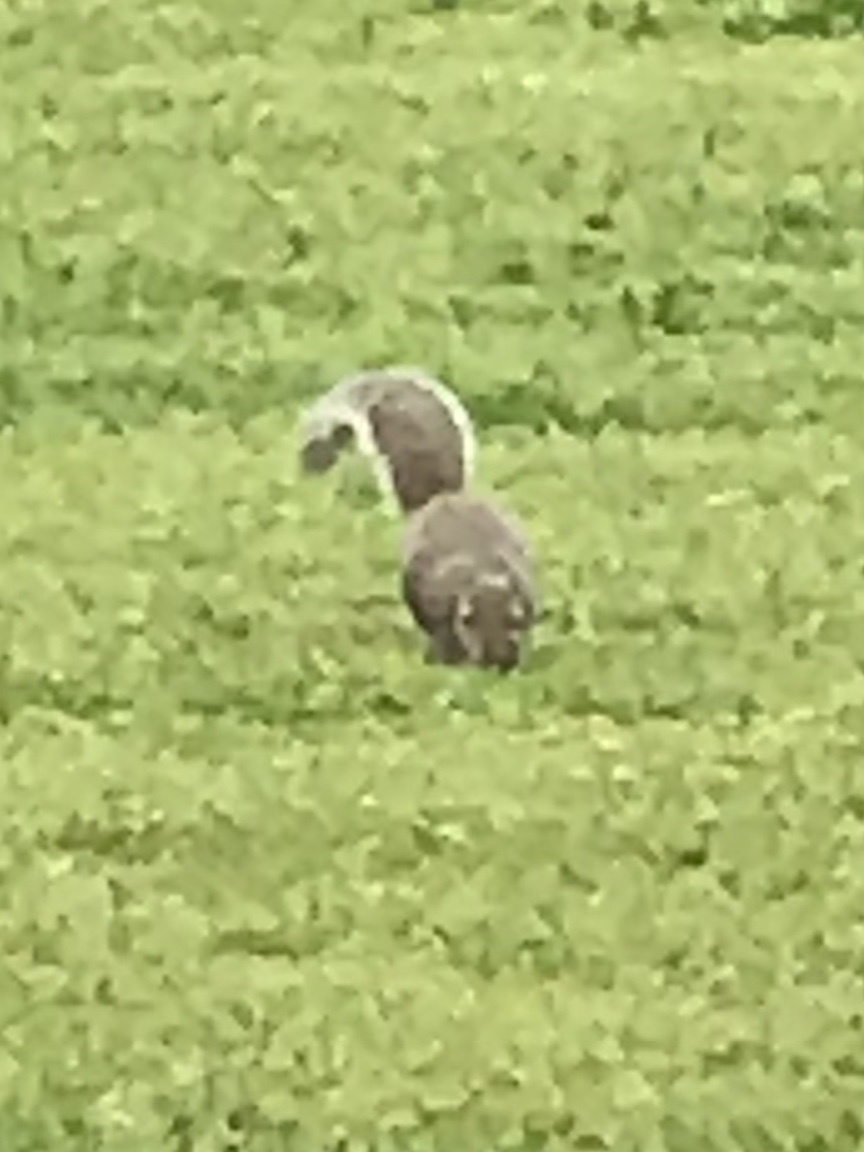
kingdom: Animalia
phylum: Chordata
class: Mammalia
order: Rodentia
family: Sciuridae
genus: Sciurus
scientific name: Sciurus carolinensis
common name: Eastern gray squirrel
